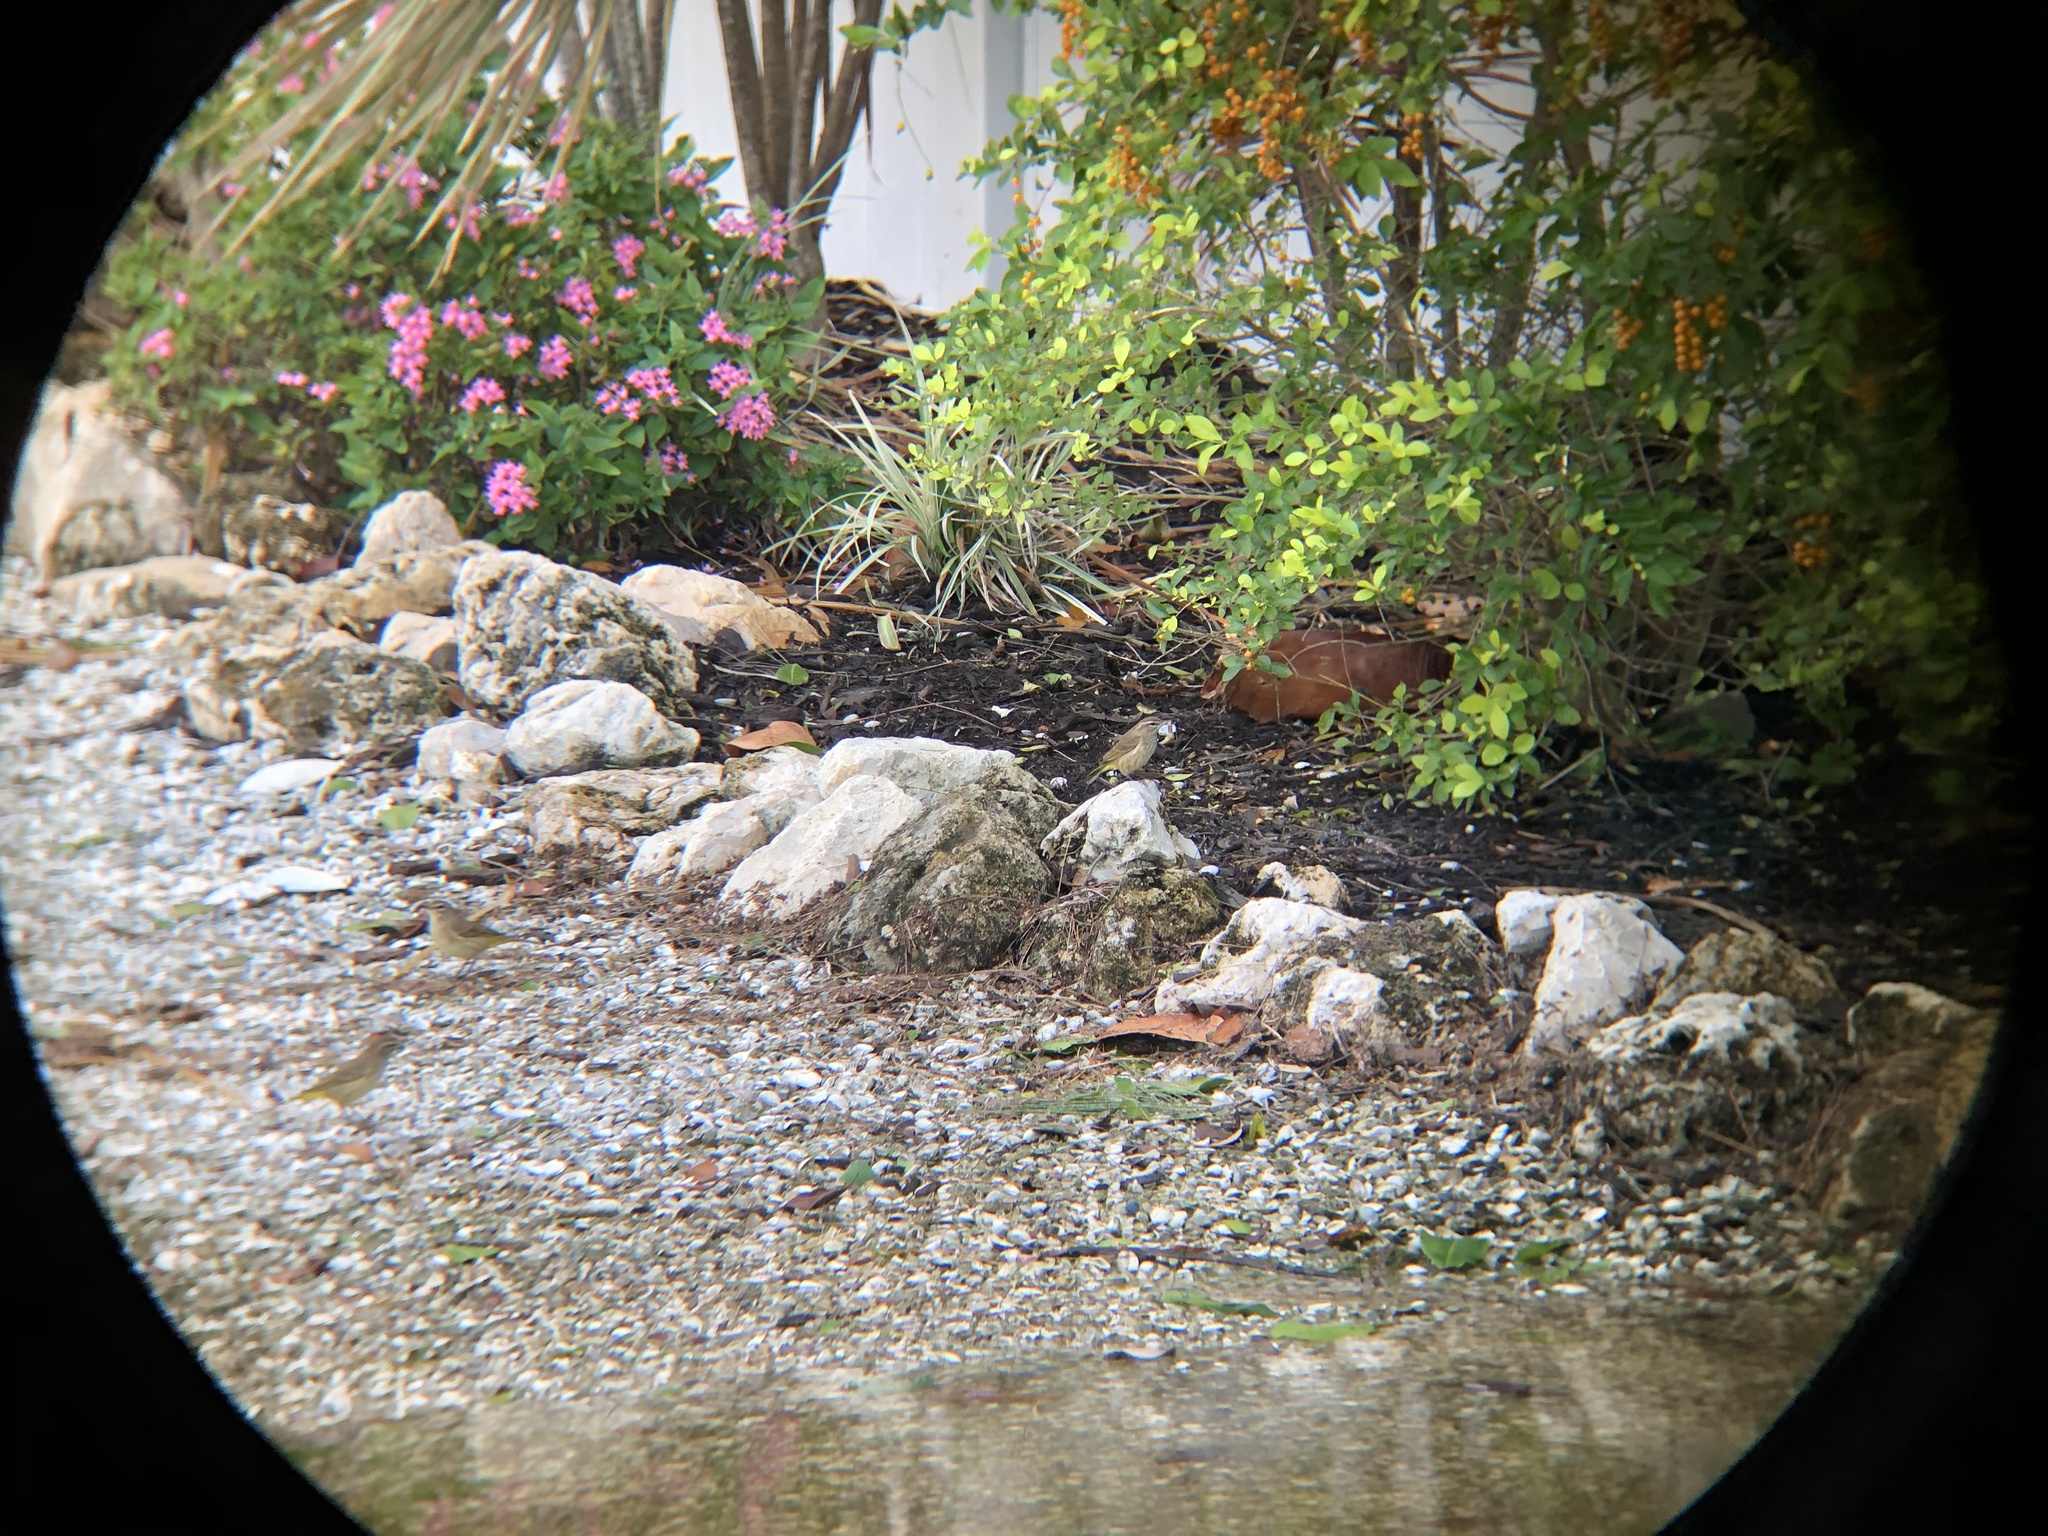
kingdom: Animalia
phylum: Chordata
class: Aves
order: Passeriformes
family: Parulidae
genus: Setophaga
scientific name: Setophaga palmarum
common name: Palm warbler
